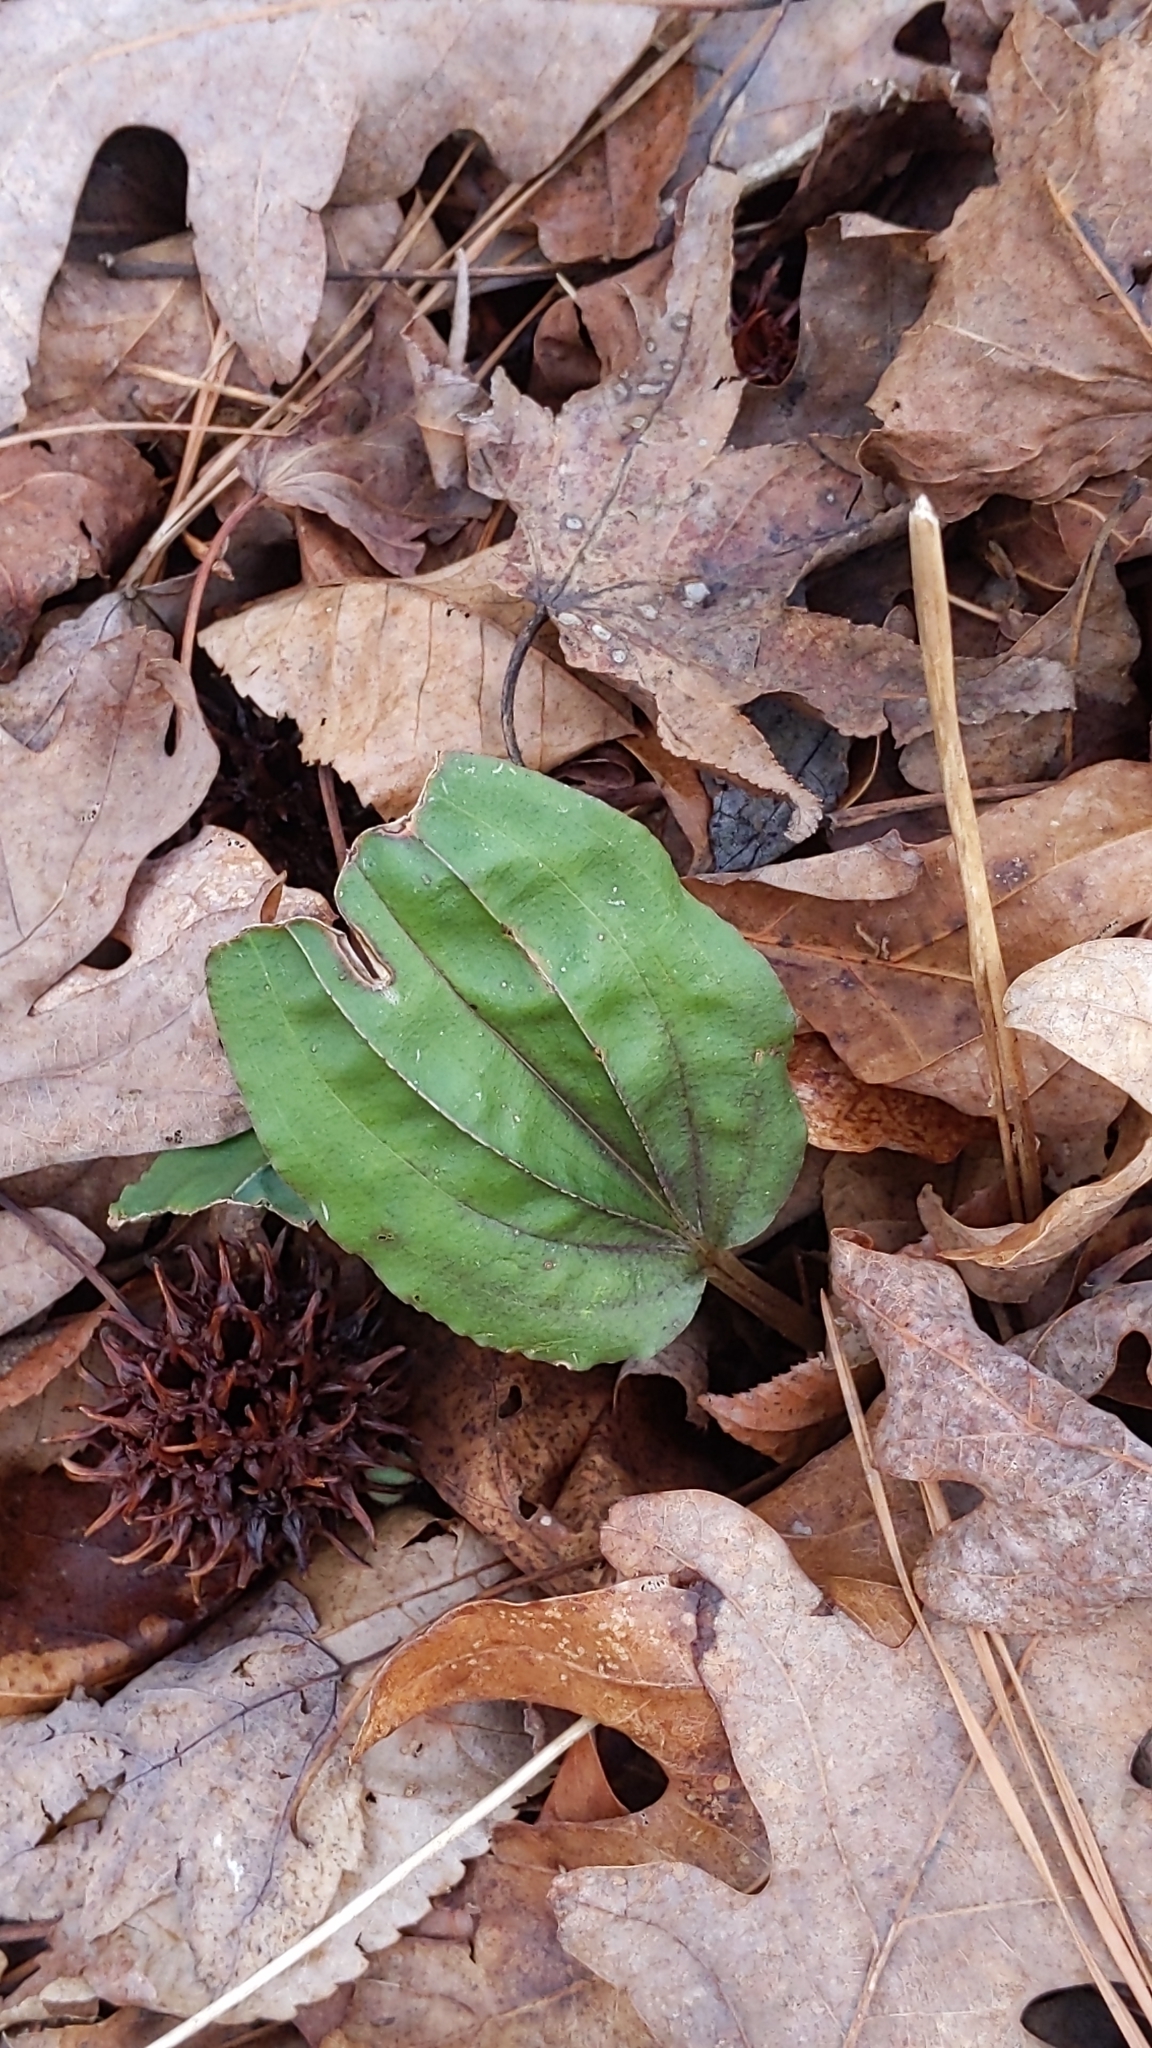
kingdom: Plantae
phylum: Tracheophyta
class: Liliopsida
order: Asparagales
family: Orchidaceae
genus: Tipularia
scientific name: Tipularia discolor
